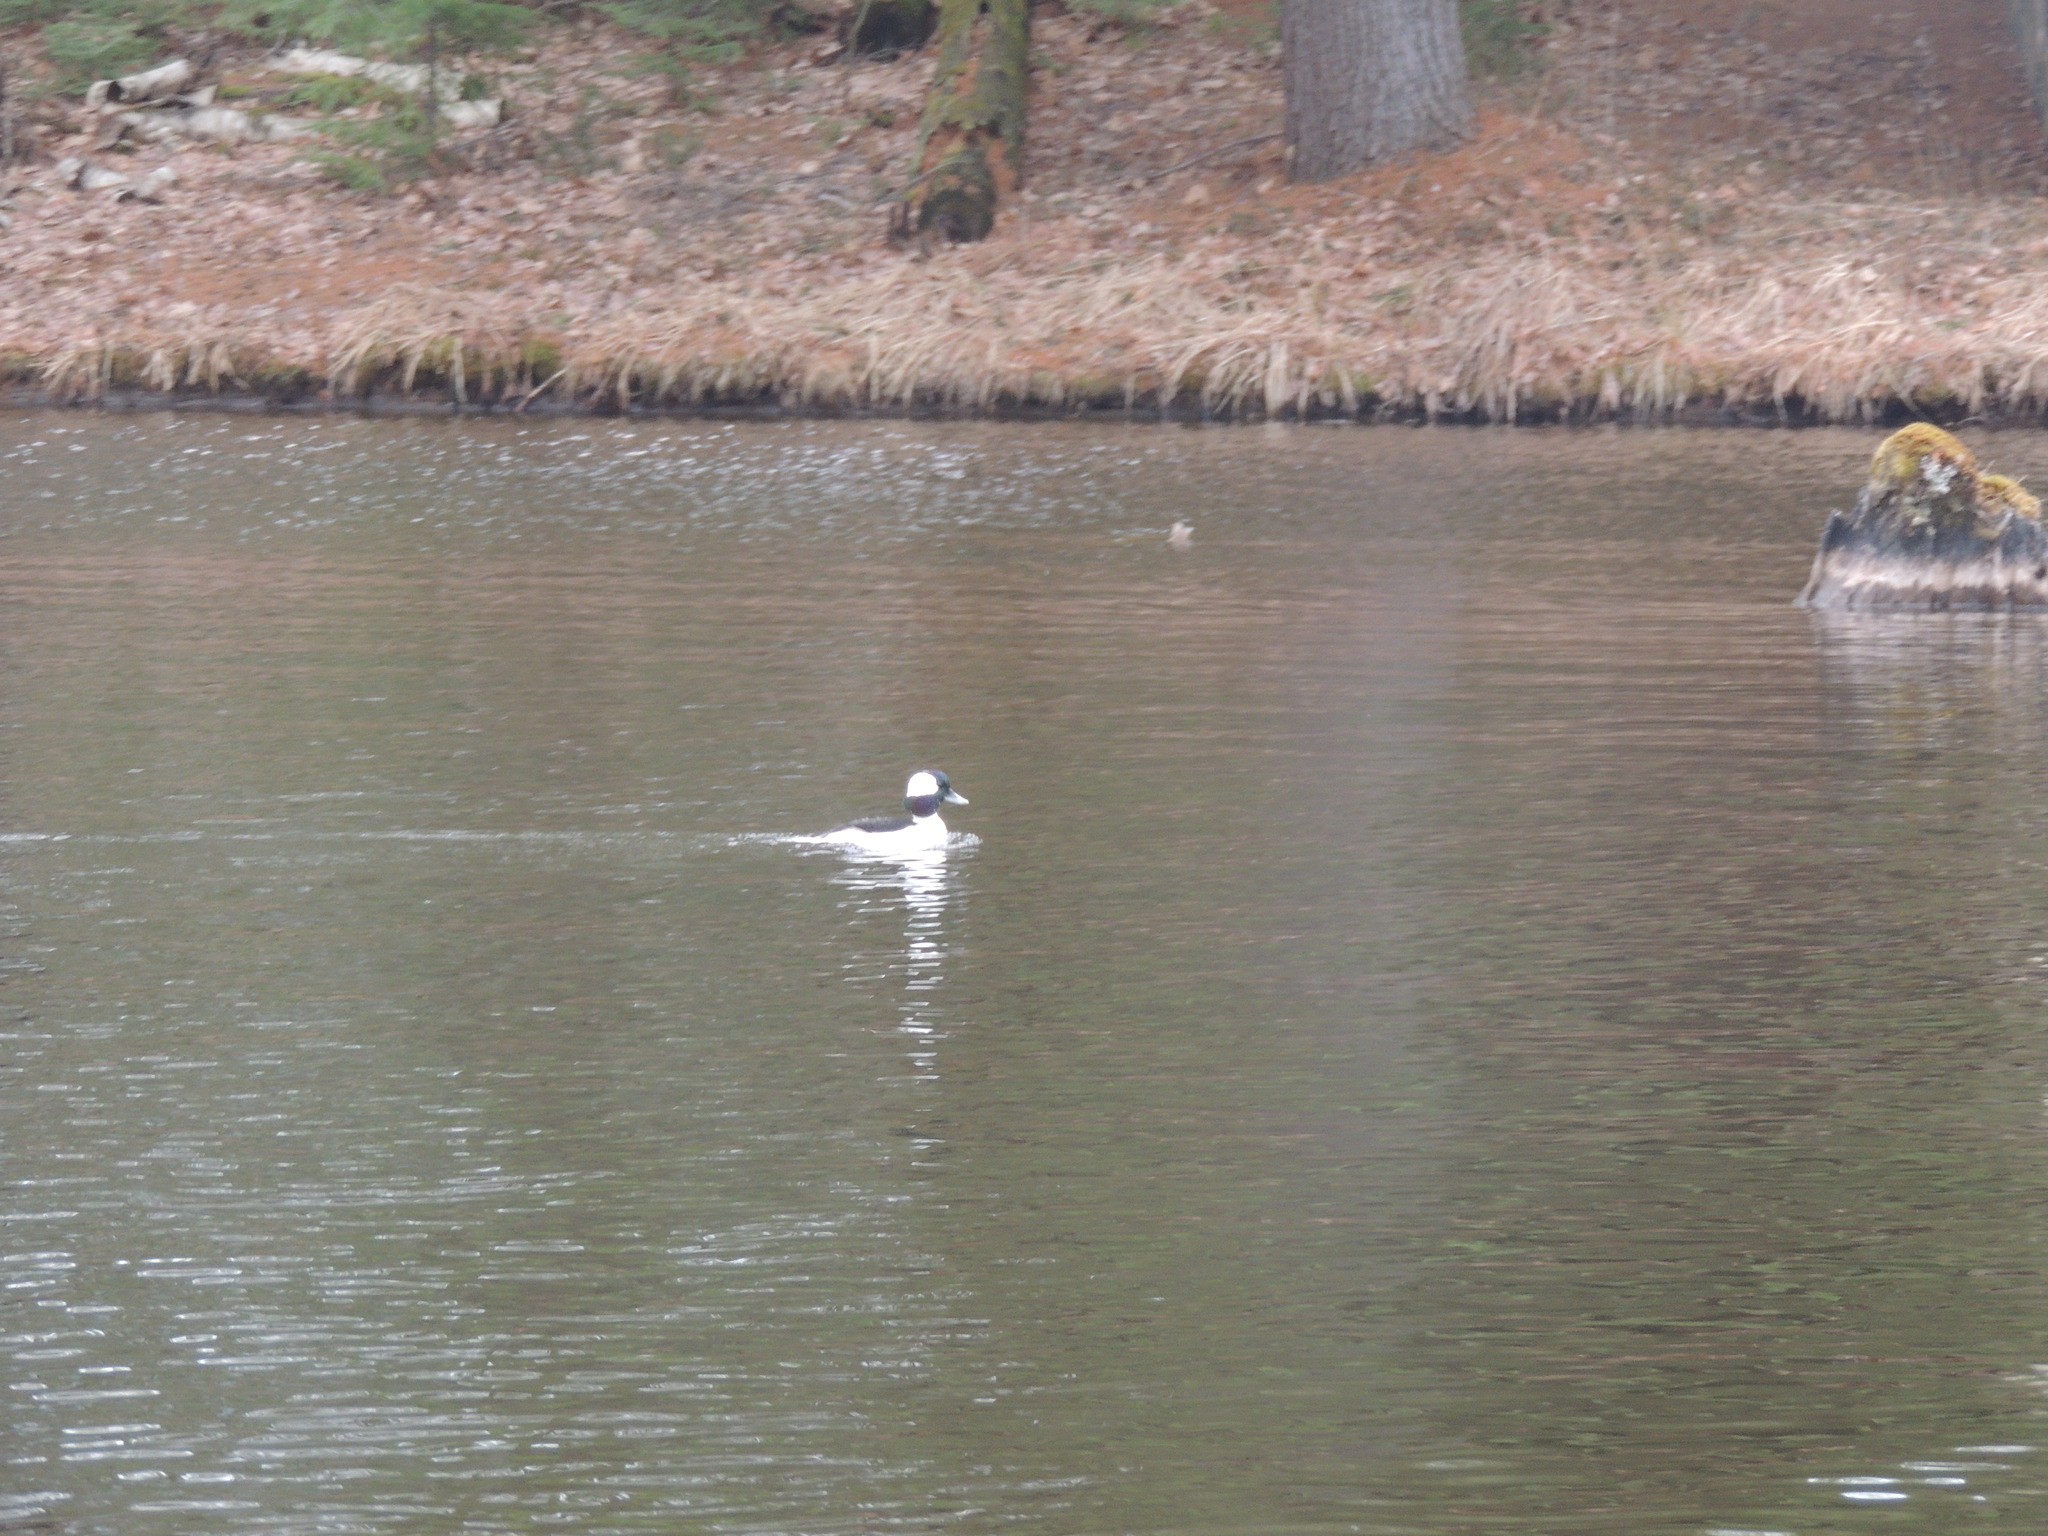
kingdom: Animalia
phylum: Chordata
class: Aves
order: Anseriformes
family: Anatidae
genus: Bucephala
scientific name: Bucephala albeola
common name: Bufflehead
